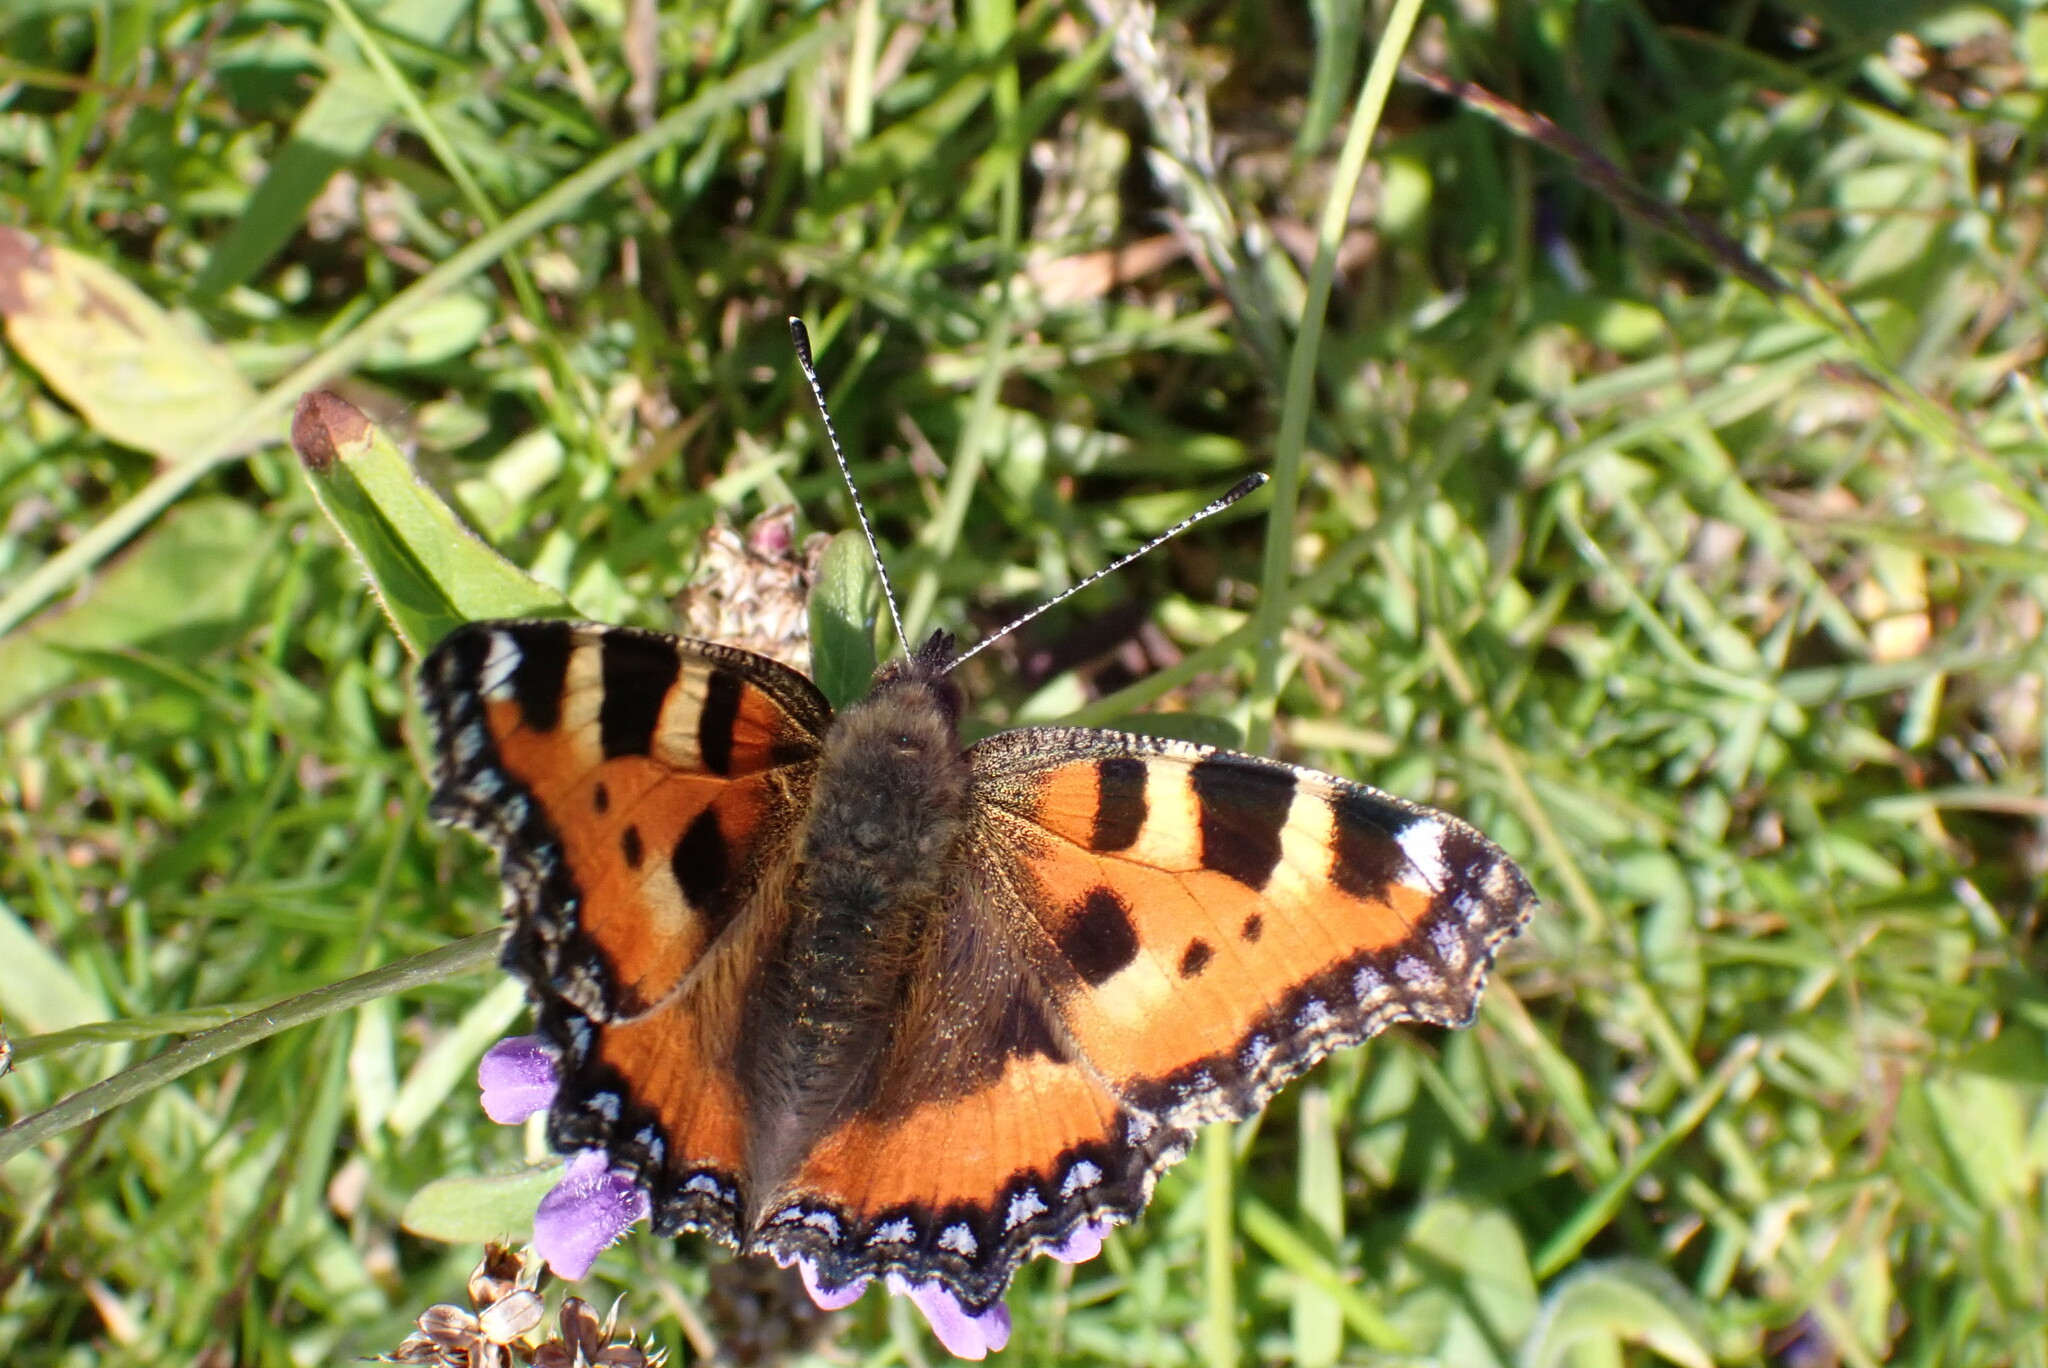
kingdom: Animalia
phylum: Arthropoda
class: Insecta
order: Lepidoptera
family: Nymphalidae
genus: Aglais
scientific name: Aglais urticae
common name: Small tortoiseshell
